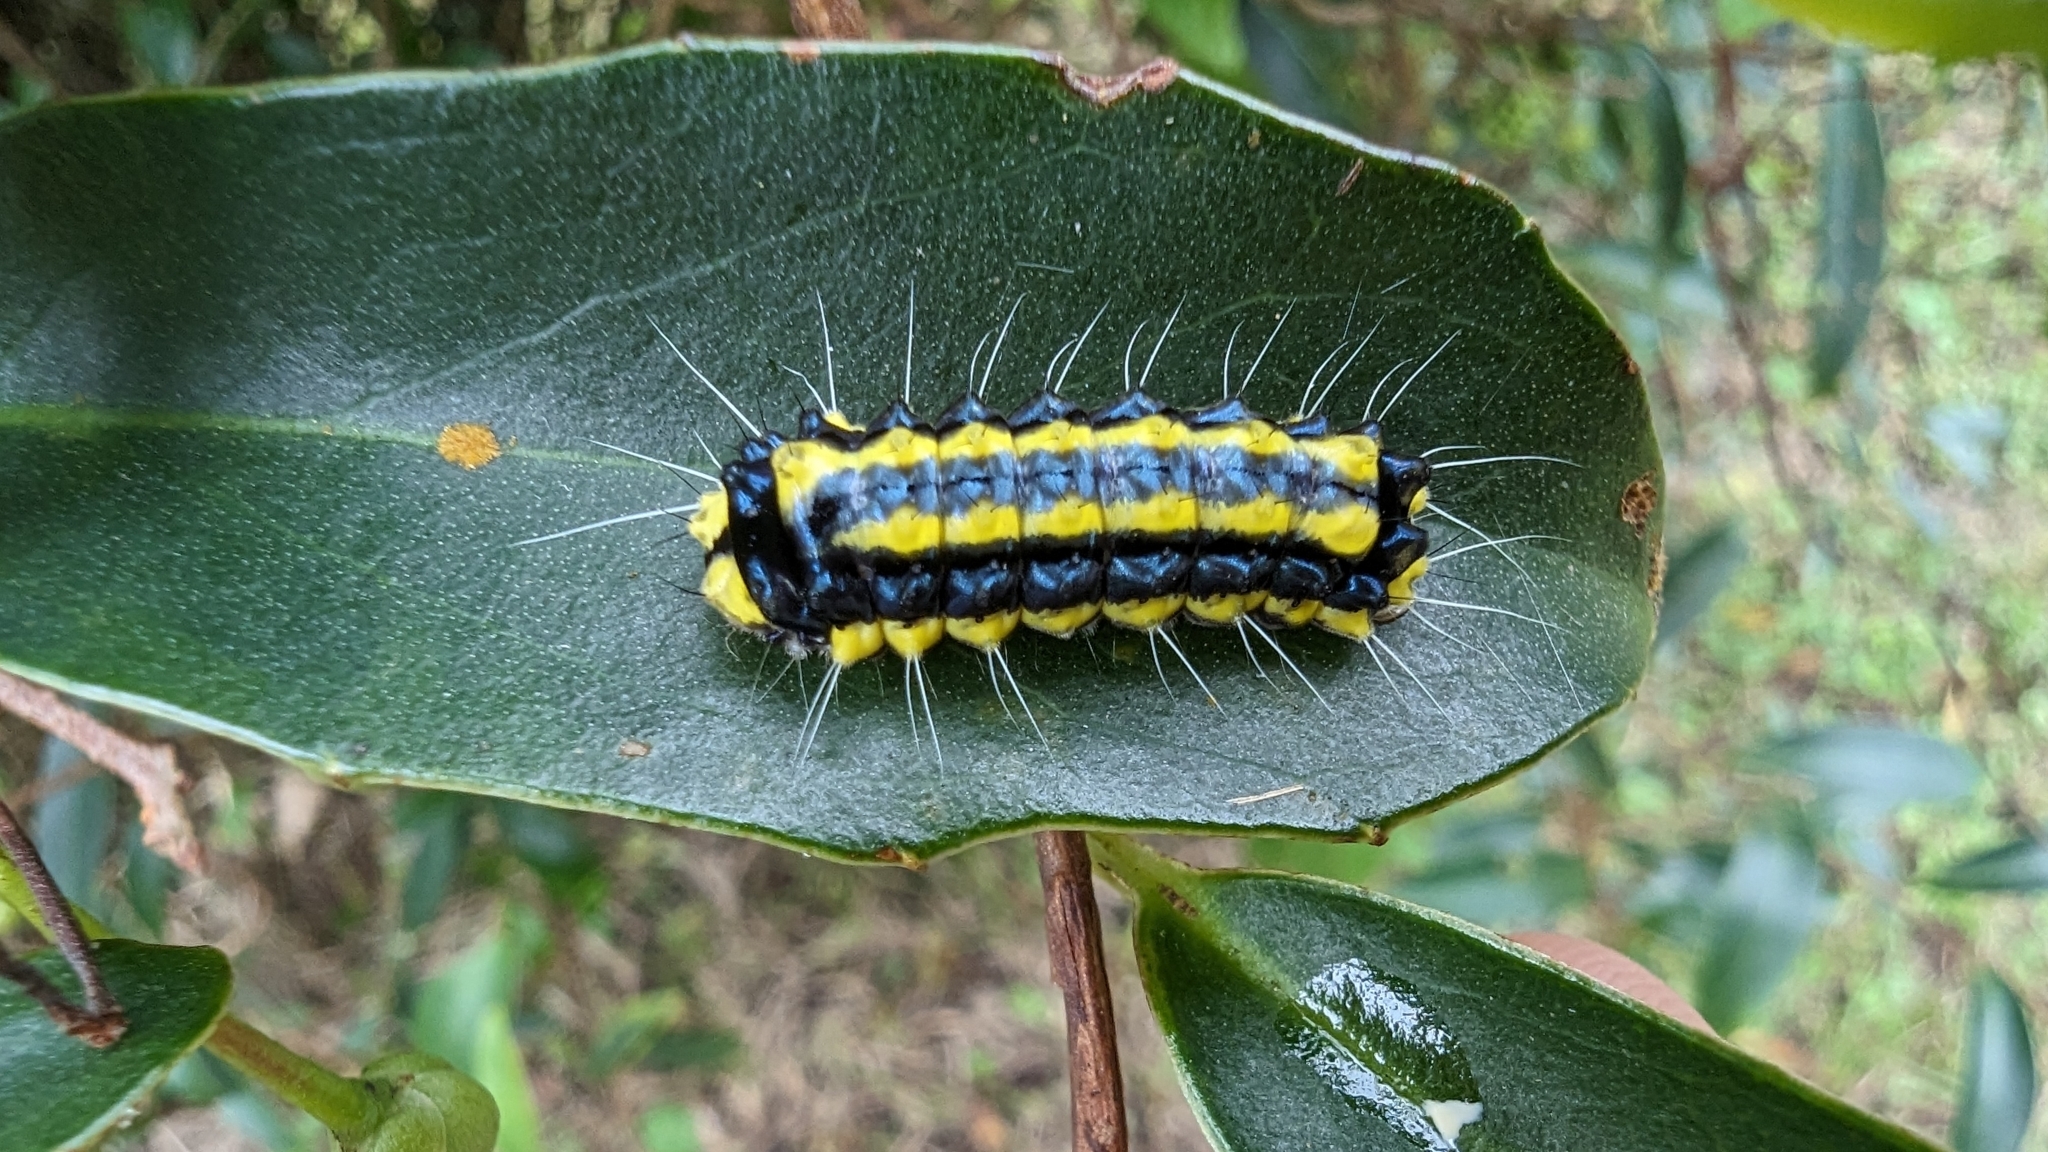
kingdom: Animalia
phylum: Arthropoda
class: Insecta
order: Lepidoptera
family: Zygaenidae
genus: Pidorus
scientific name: Pidorus glaucopis
